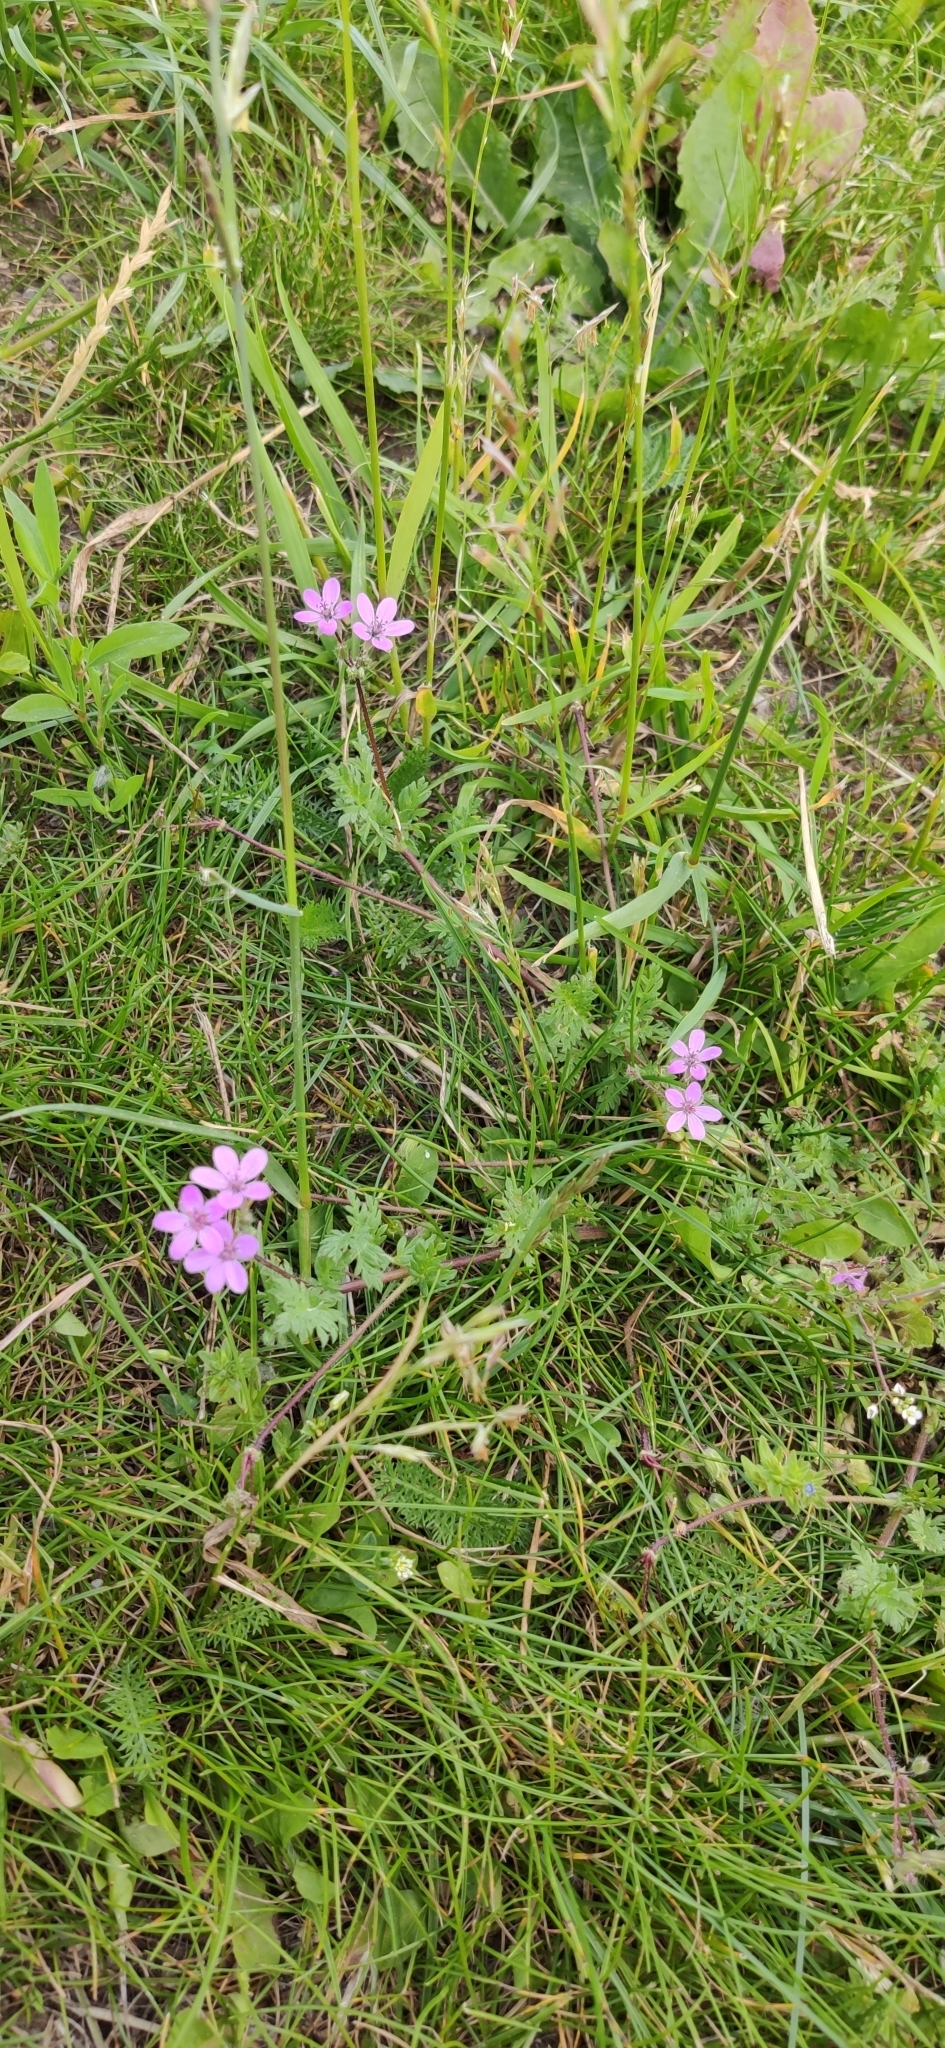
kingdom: Plantae
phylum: Tracheophyta
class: Magnoliopsida
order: Geraniales
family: Geraniaceae
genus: Erodium
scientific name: Erodium cicutarium
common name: Common stork's-bill
